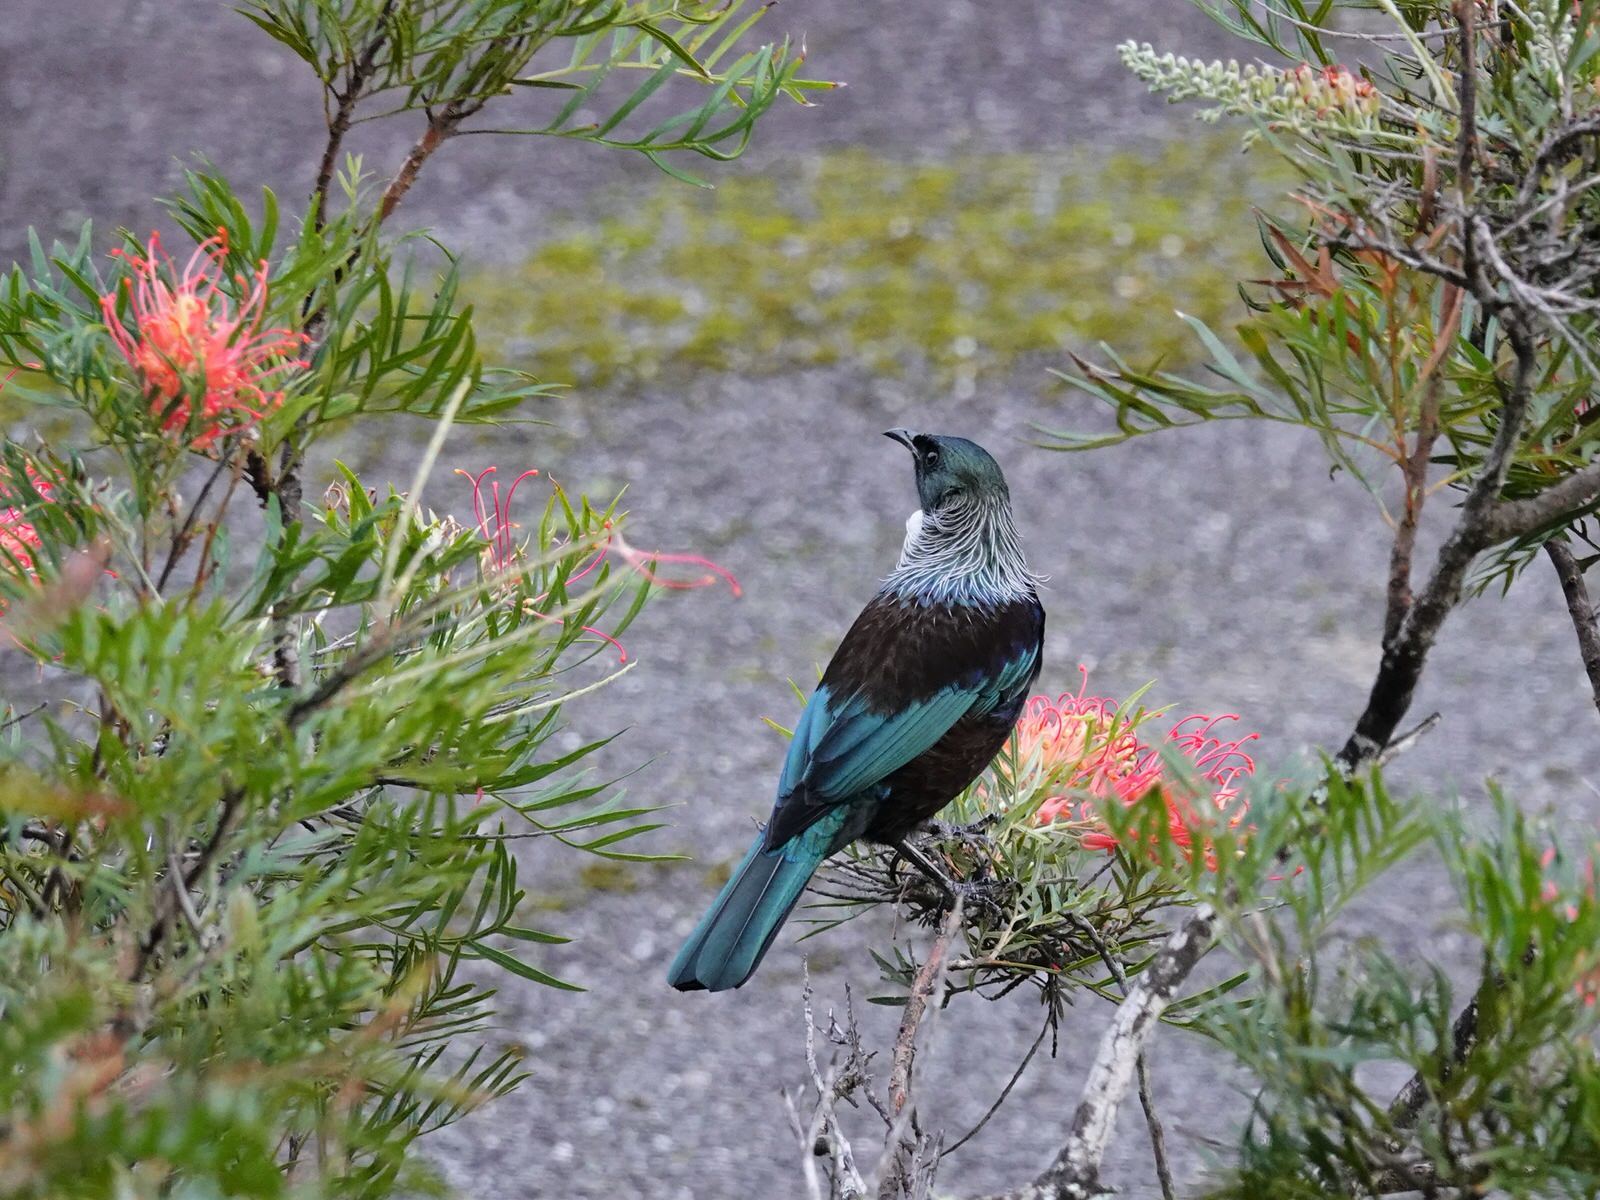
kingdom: Animalia
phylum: Chordata
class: Aves
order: Passeriformes
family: Meliphagidae
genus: Prosthemadera
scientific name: Prosthemadera novaeseelandiae
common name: Tui
